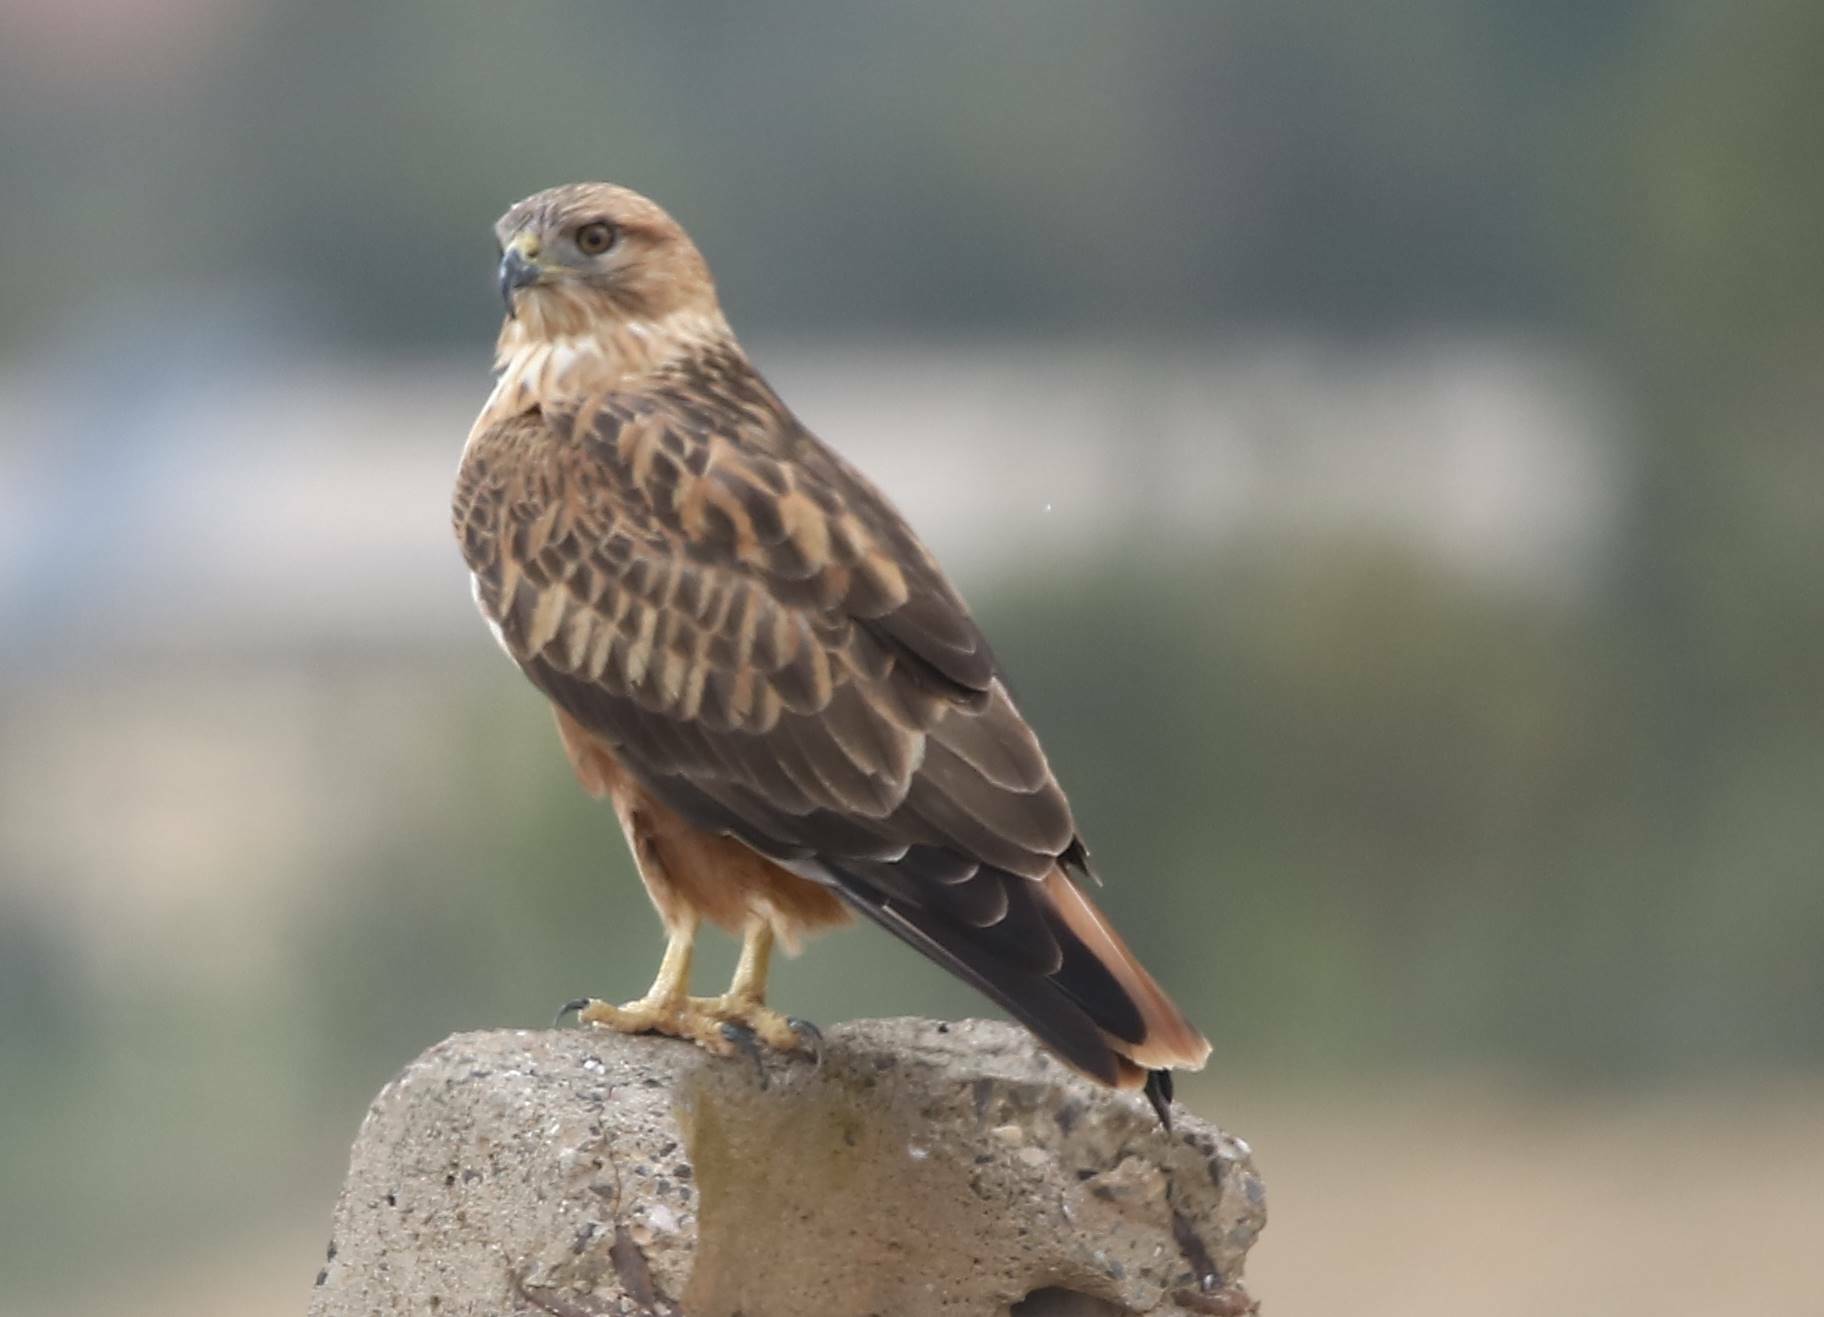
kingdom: Animalia
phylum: Chordata
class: Aves
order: Accipitriformes
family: Accipitridae
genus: Buteo
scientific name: Buteo rufinus
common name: Long-legged buzzard
